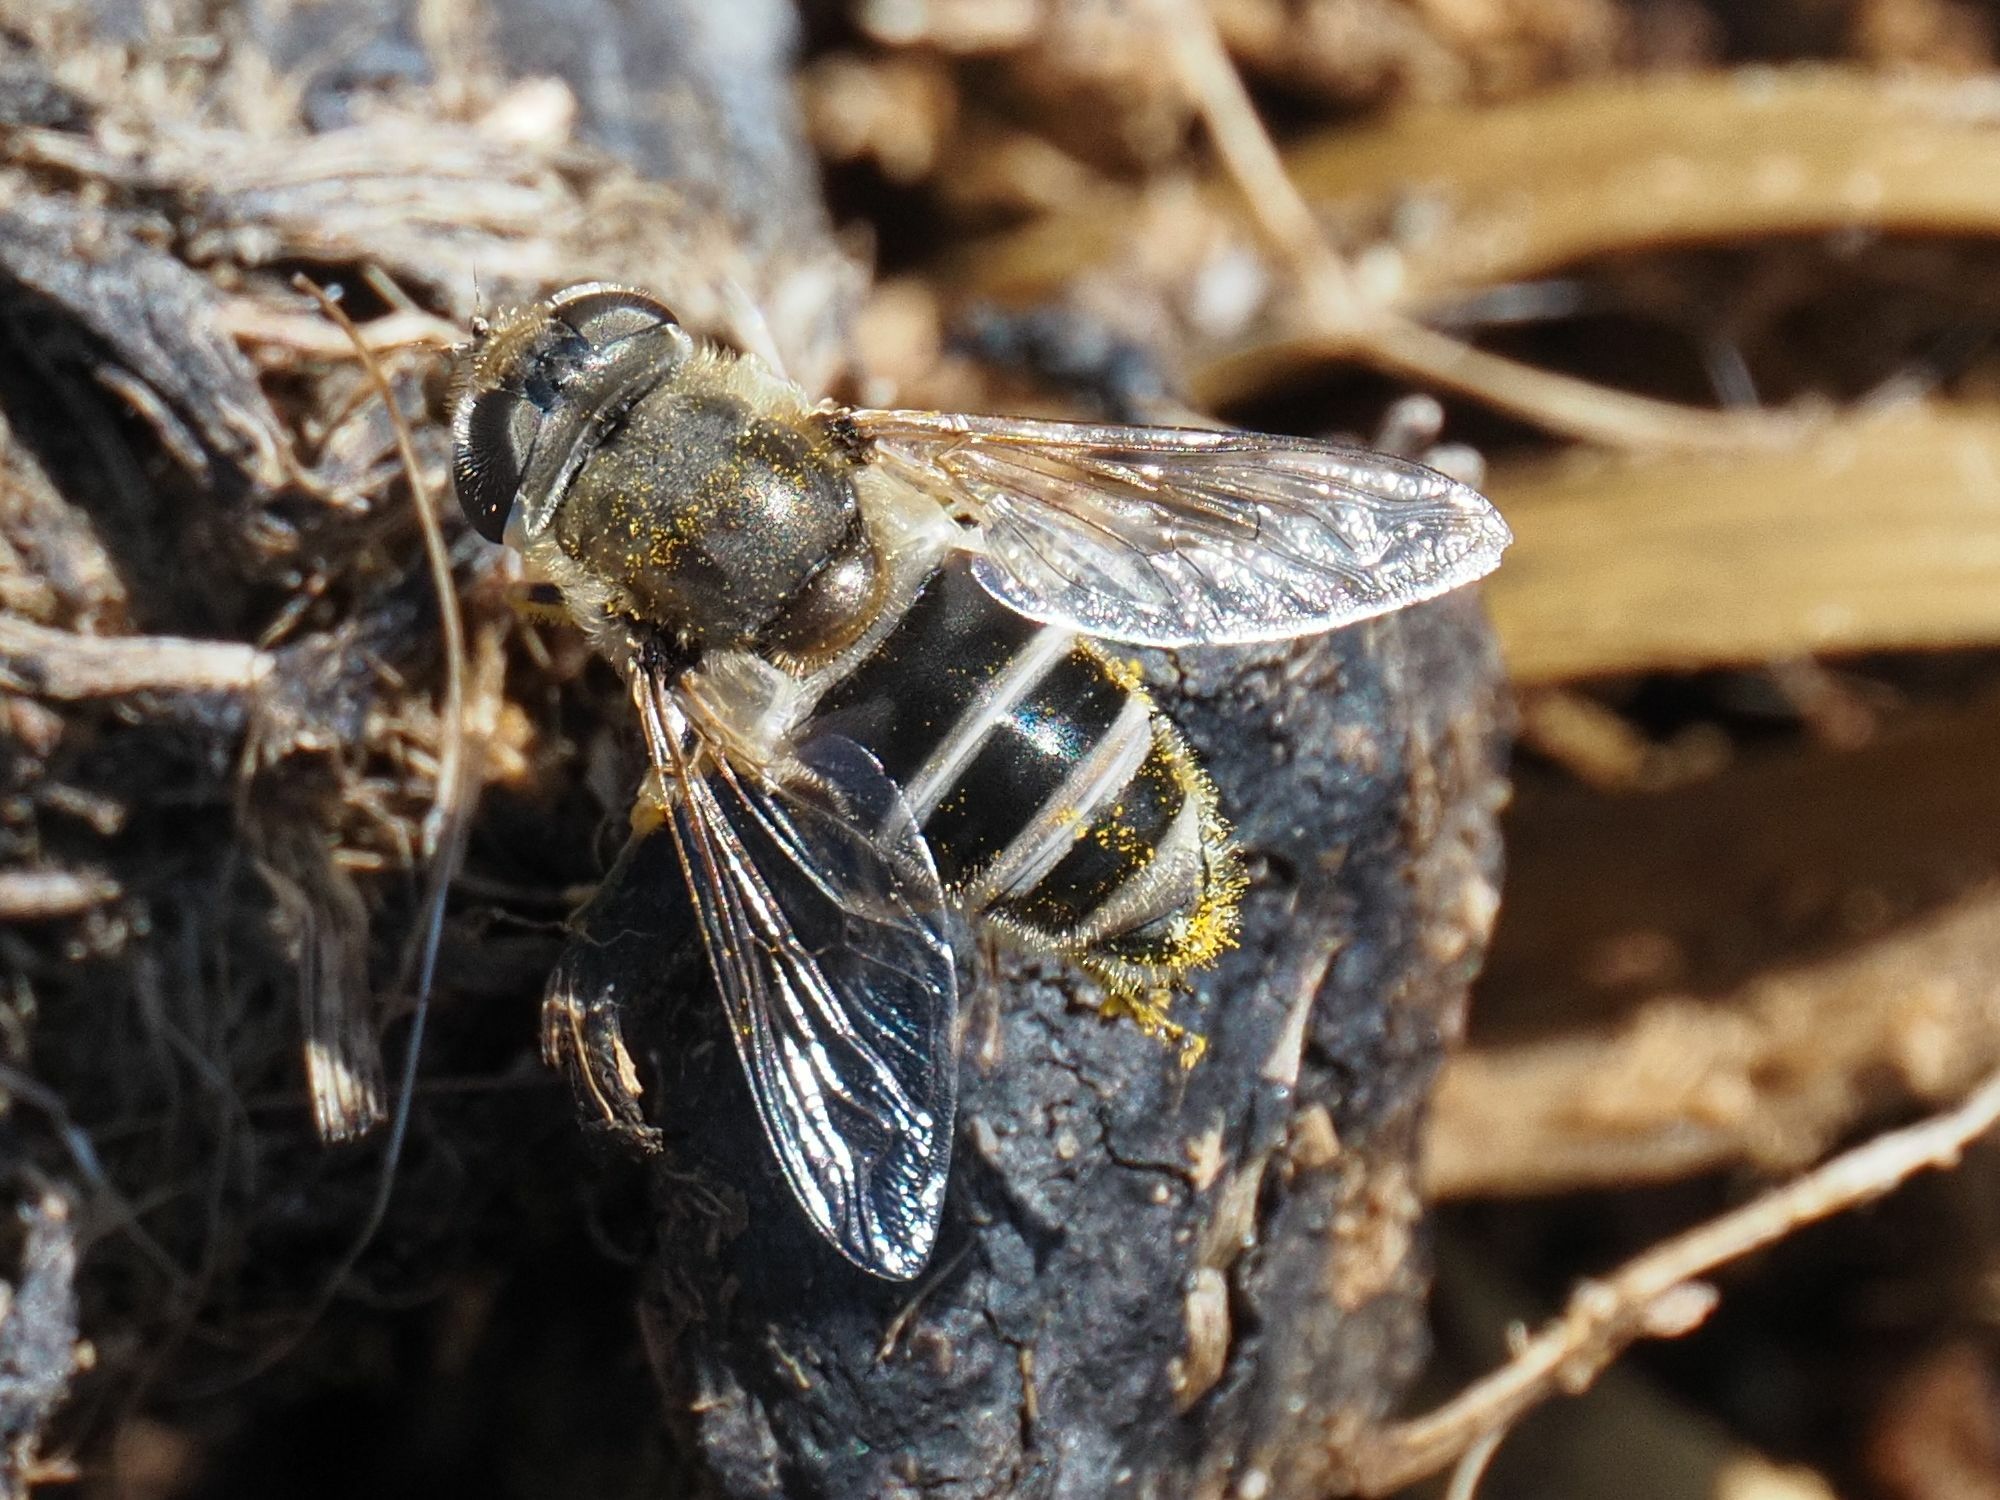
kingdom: Animalia
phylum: Arthropoda
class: Insecta
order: Diptera
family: Syrphidae
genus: Eristalis
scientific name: Eristalis arbustorum
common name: Hover fly
